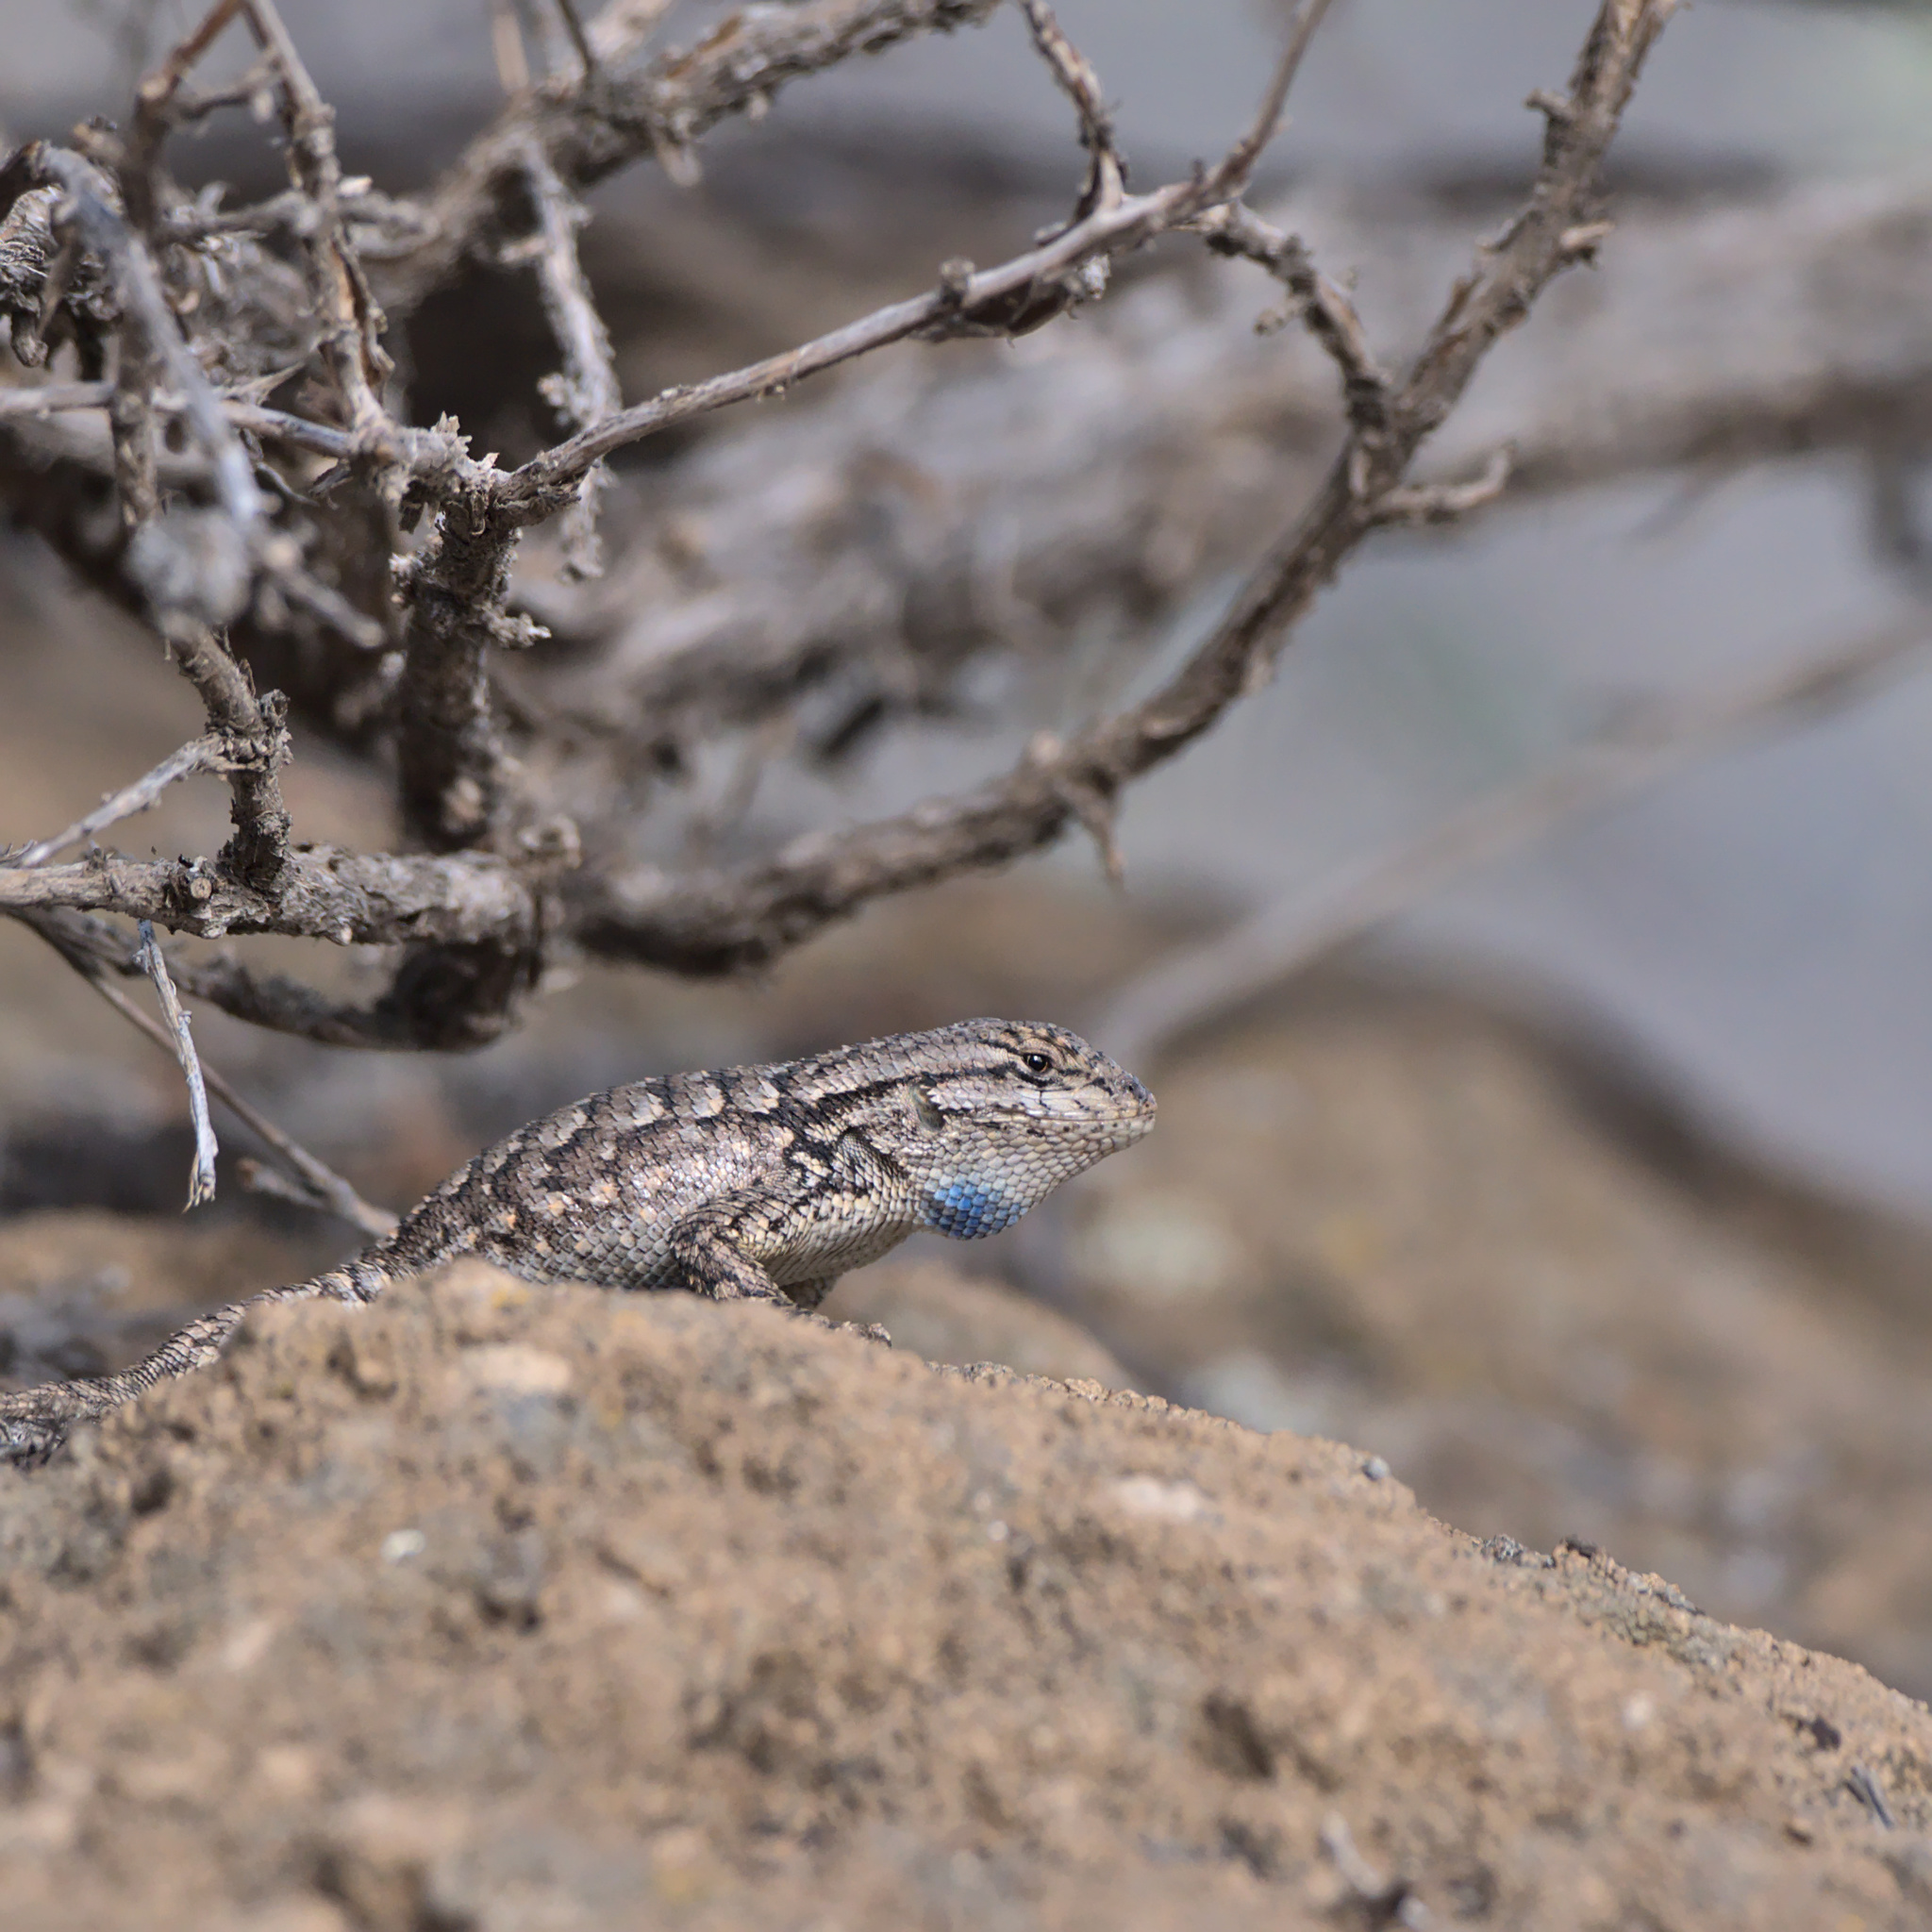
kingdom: Animalia
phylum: Chordata
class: Squamata
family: Phrynosomatidae
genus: Sceloporus
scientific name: Sceloporus occidentalis
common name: Western fence lizard
